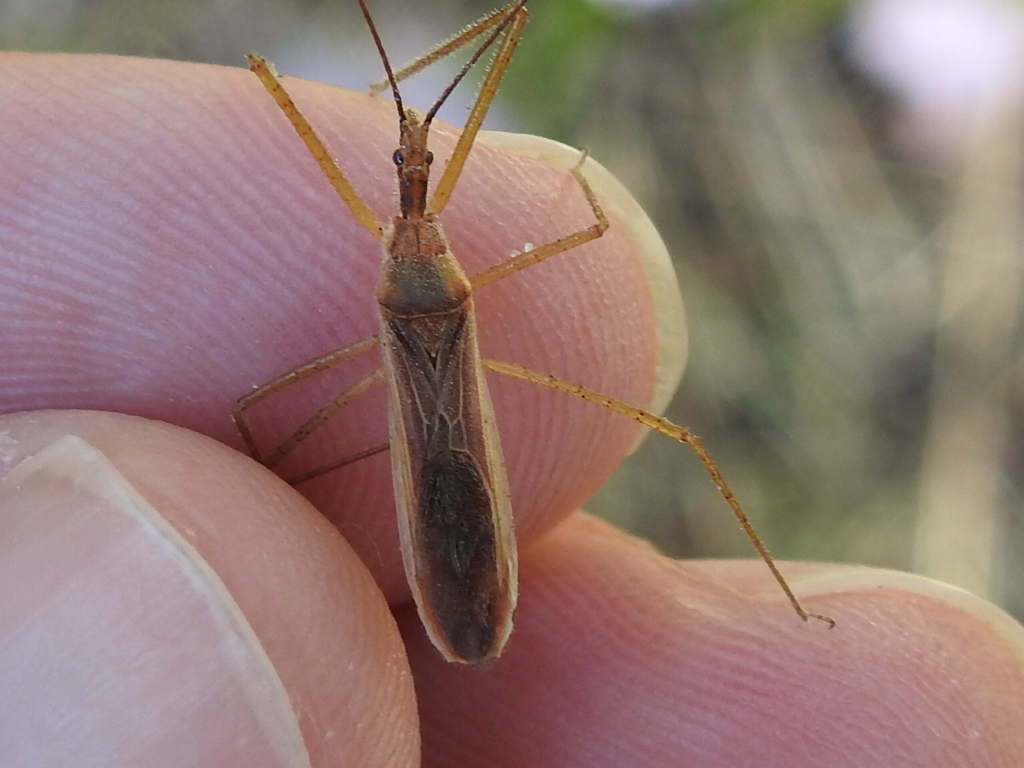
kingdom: Animalia
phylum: Arthropoda
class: Insecta
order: Hemiptera
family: Reduviidae
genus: Zelus
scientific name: Zelus cervicalis
